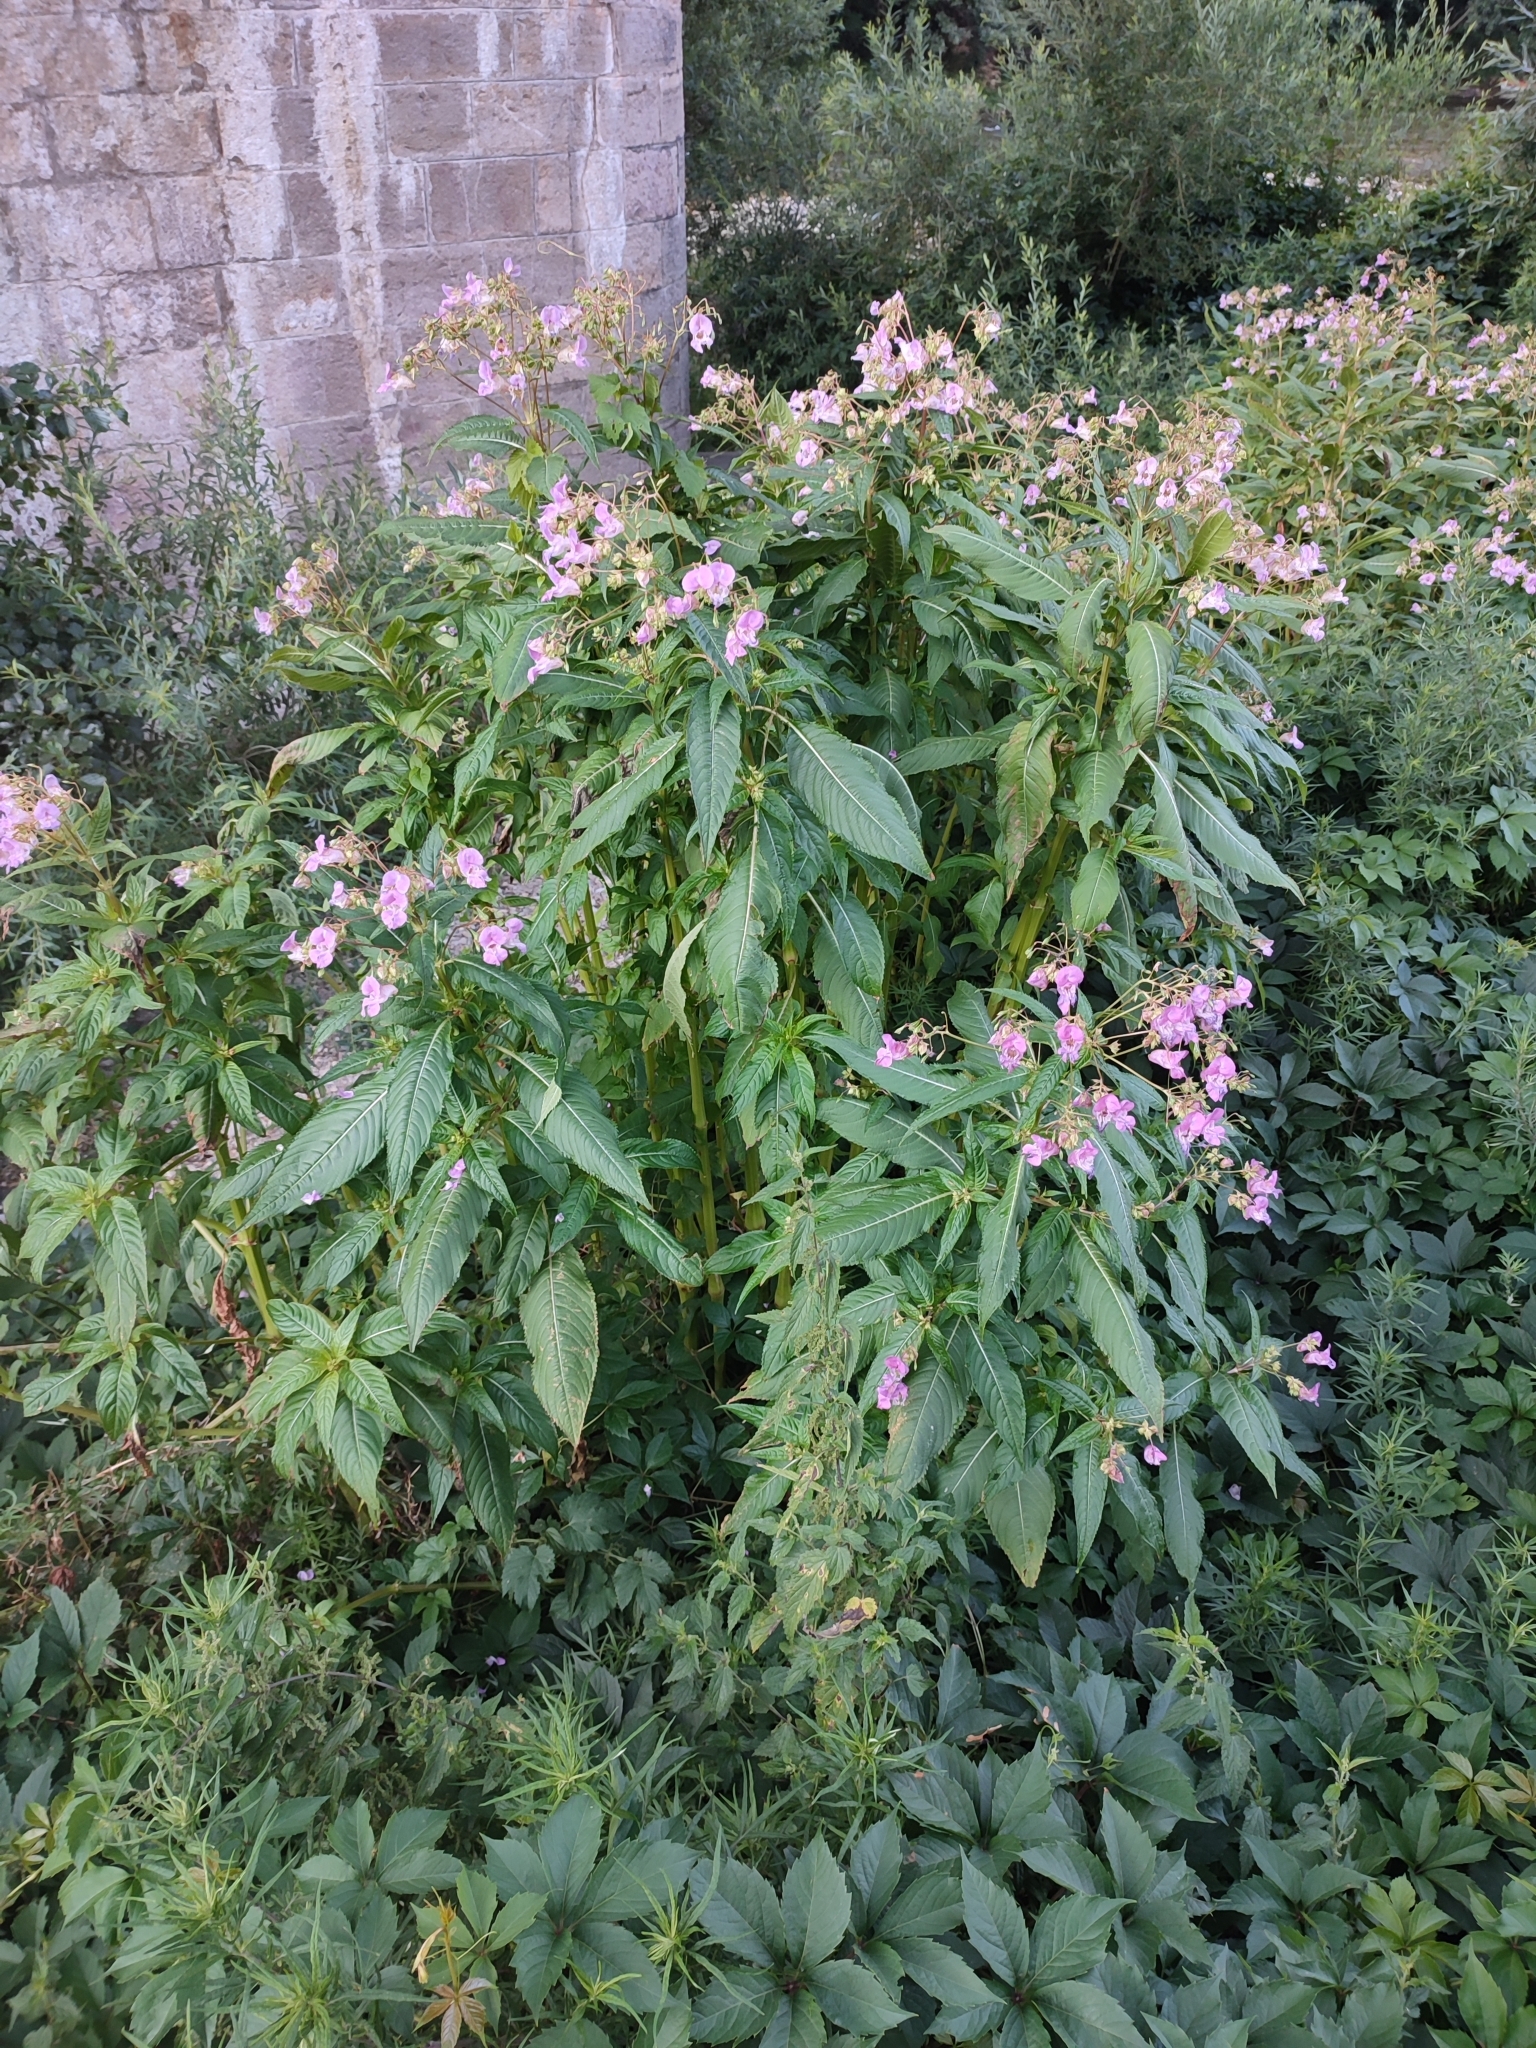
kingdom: Plantae
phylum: Tracheophyta
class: Magnoliopsida
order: Ericales
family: Balsaminaceae
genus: Impatiens
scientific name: Impatiens glandulifera
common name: Himalayan balsam
